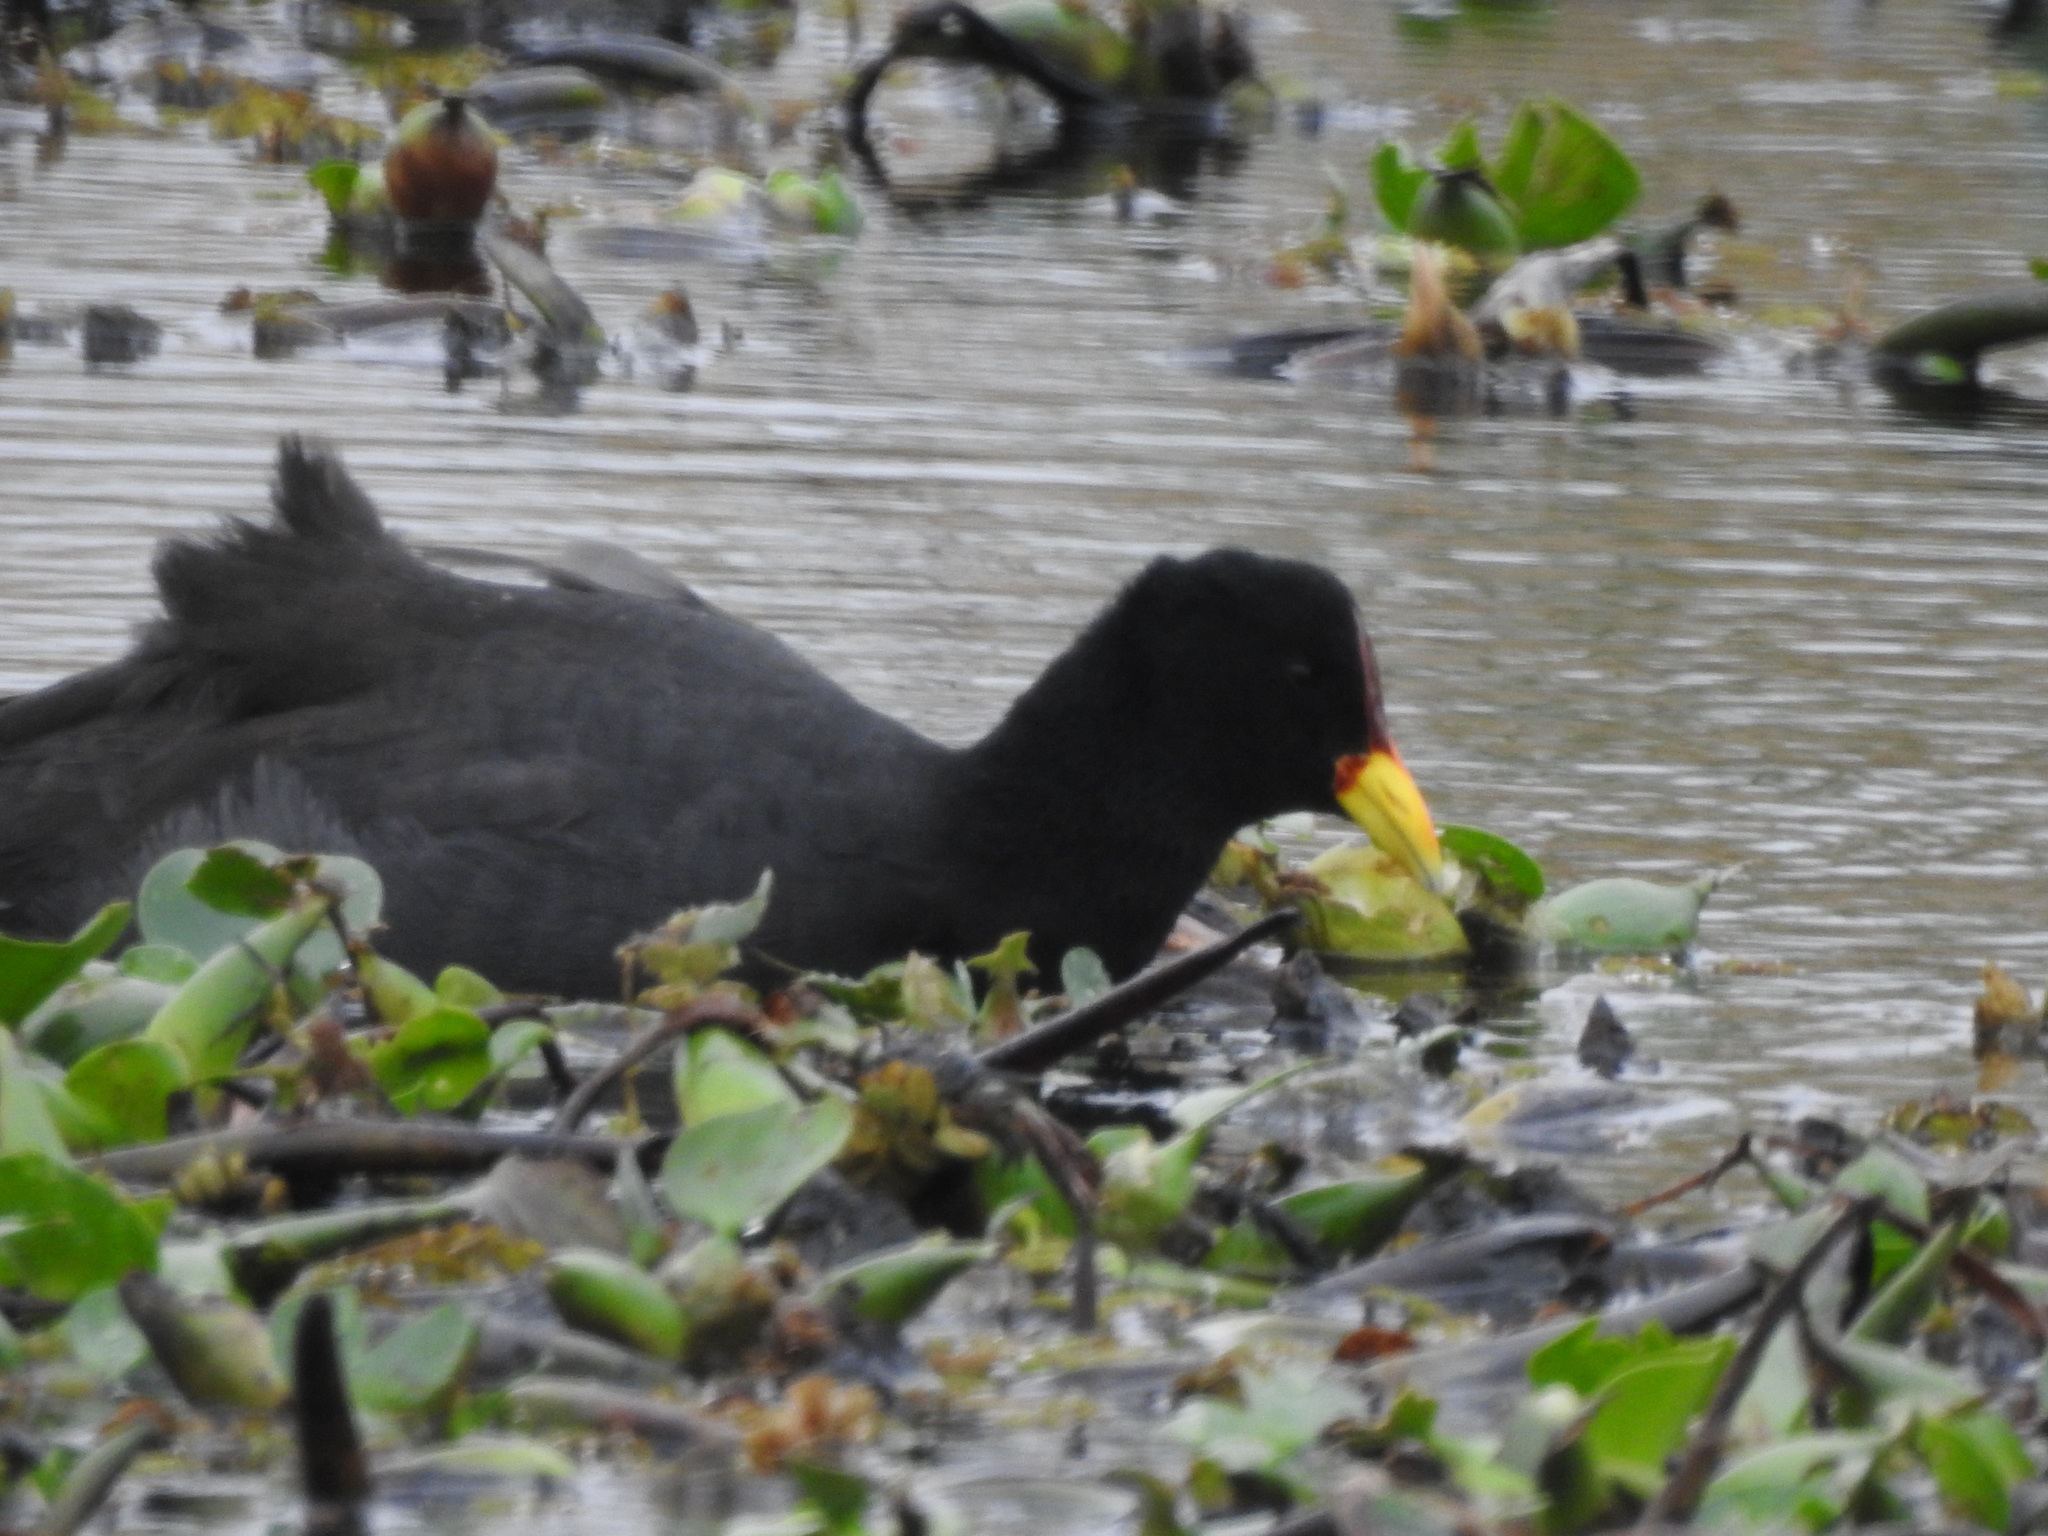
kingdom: Animalia
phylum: Chordata
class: Aves
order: Gruiformes
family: Rallidae
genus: Fulica
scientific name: Fulica rufifrons
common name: Red-fronted coot
